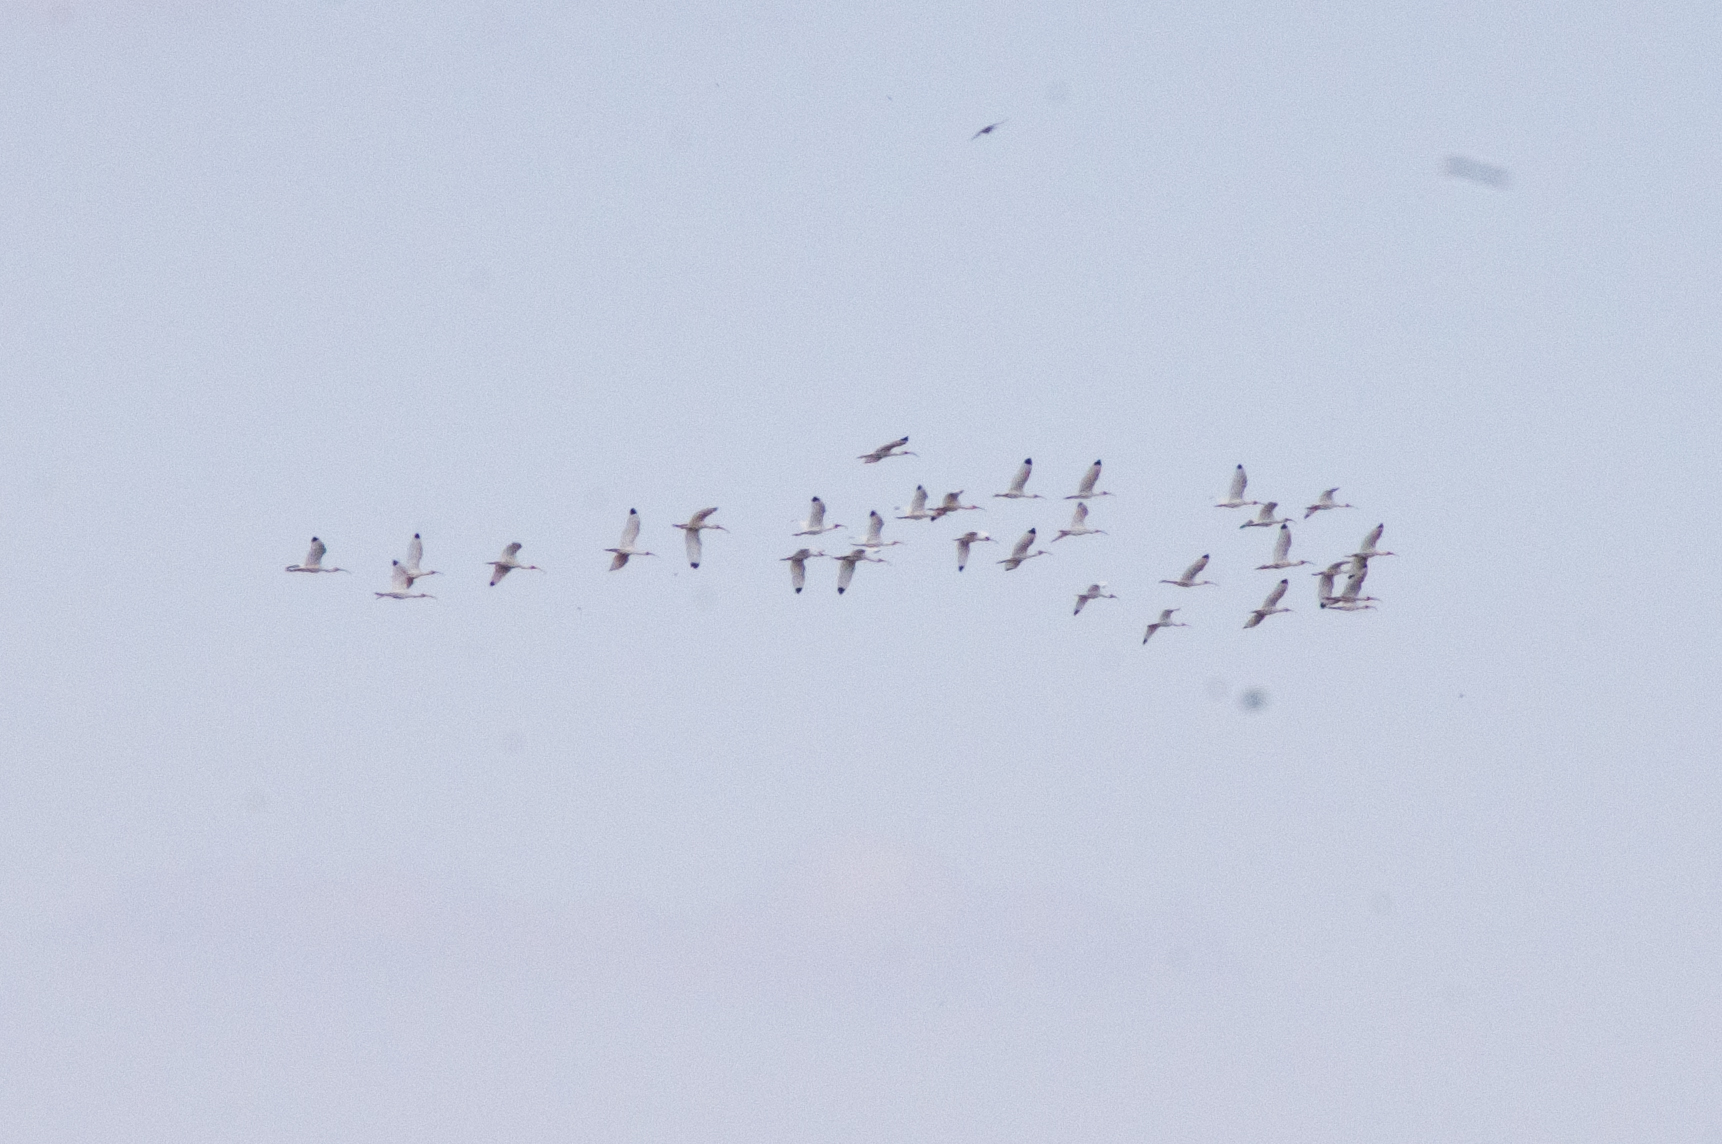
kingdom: Animalia
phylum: Chordata
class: Aves
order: Pelecaniformes
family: Threskiornithidae
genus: Eudocimus
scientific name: Eudocimus albus
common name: White ibis
